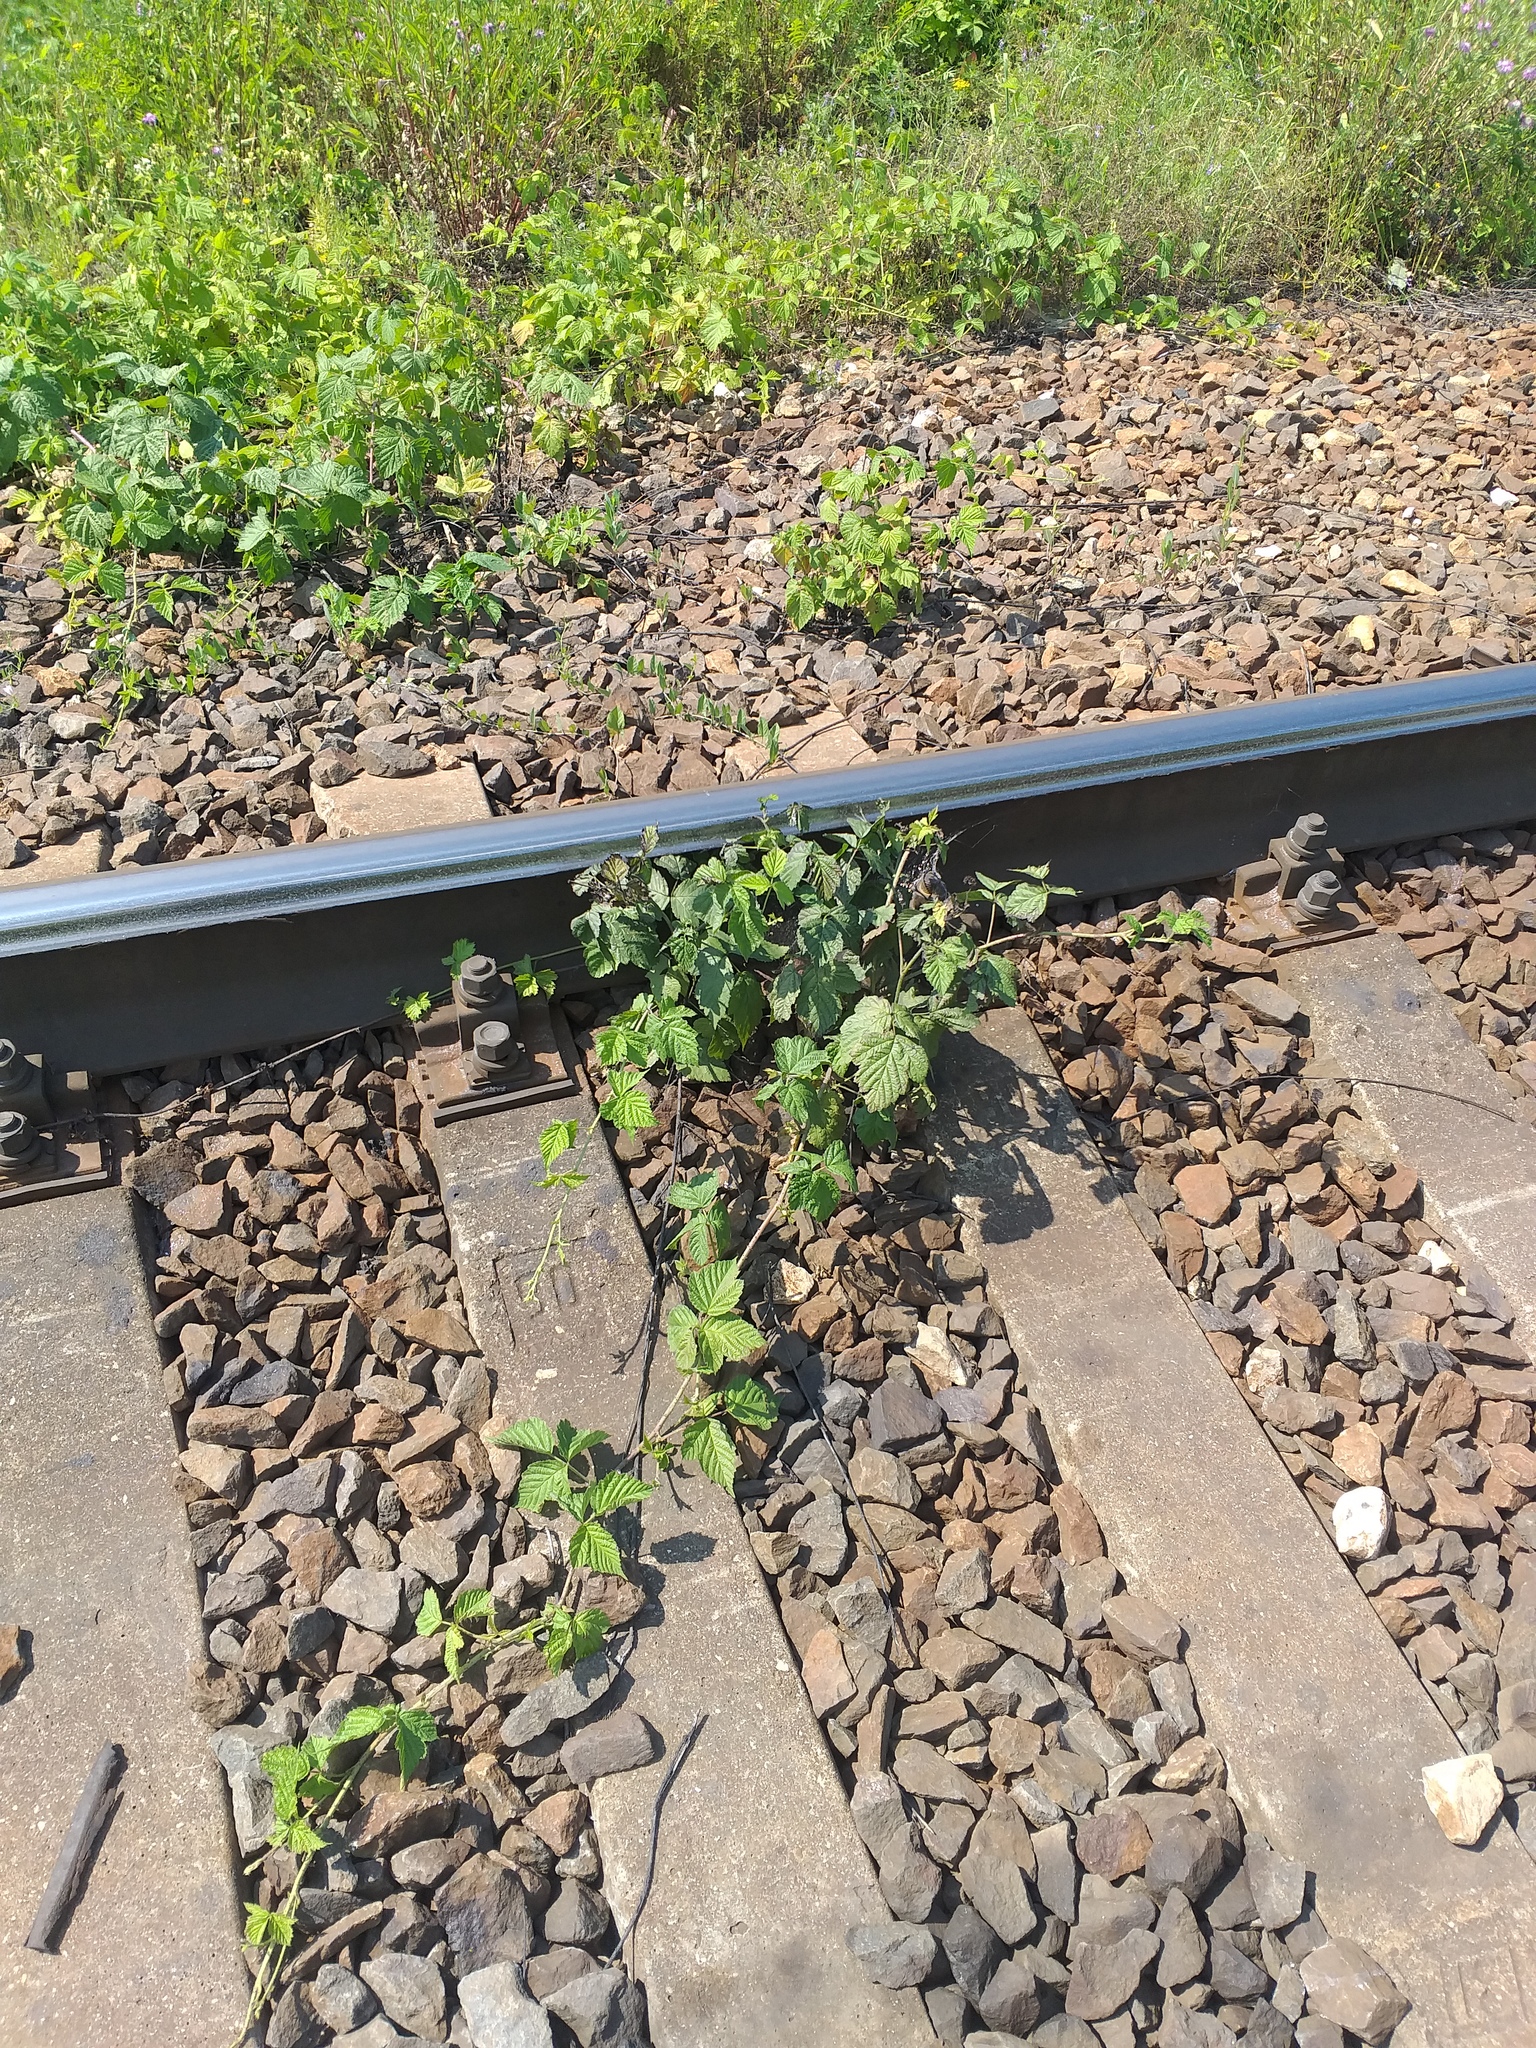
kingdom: Plantae
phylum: Tracheophyta
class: Magnoliopsida
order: Rosales
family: Rosaceae
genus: Rubus
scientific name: Rubus caesius
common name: Dewberry
